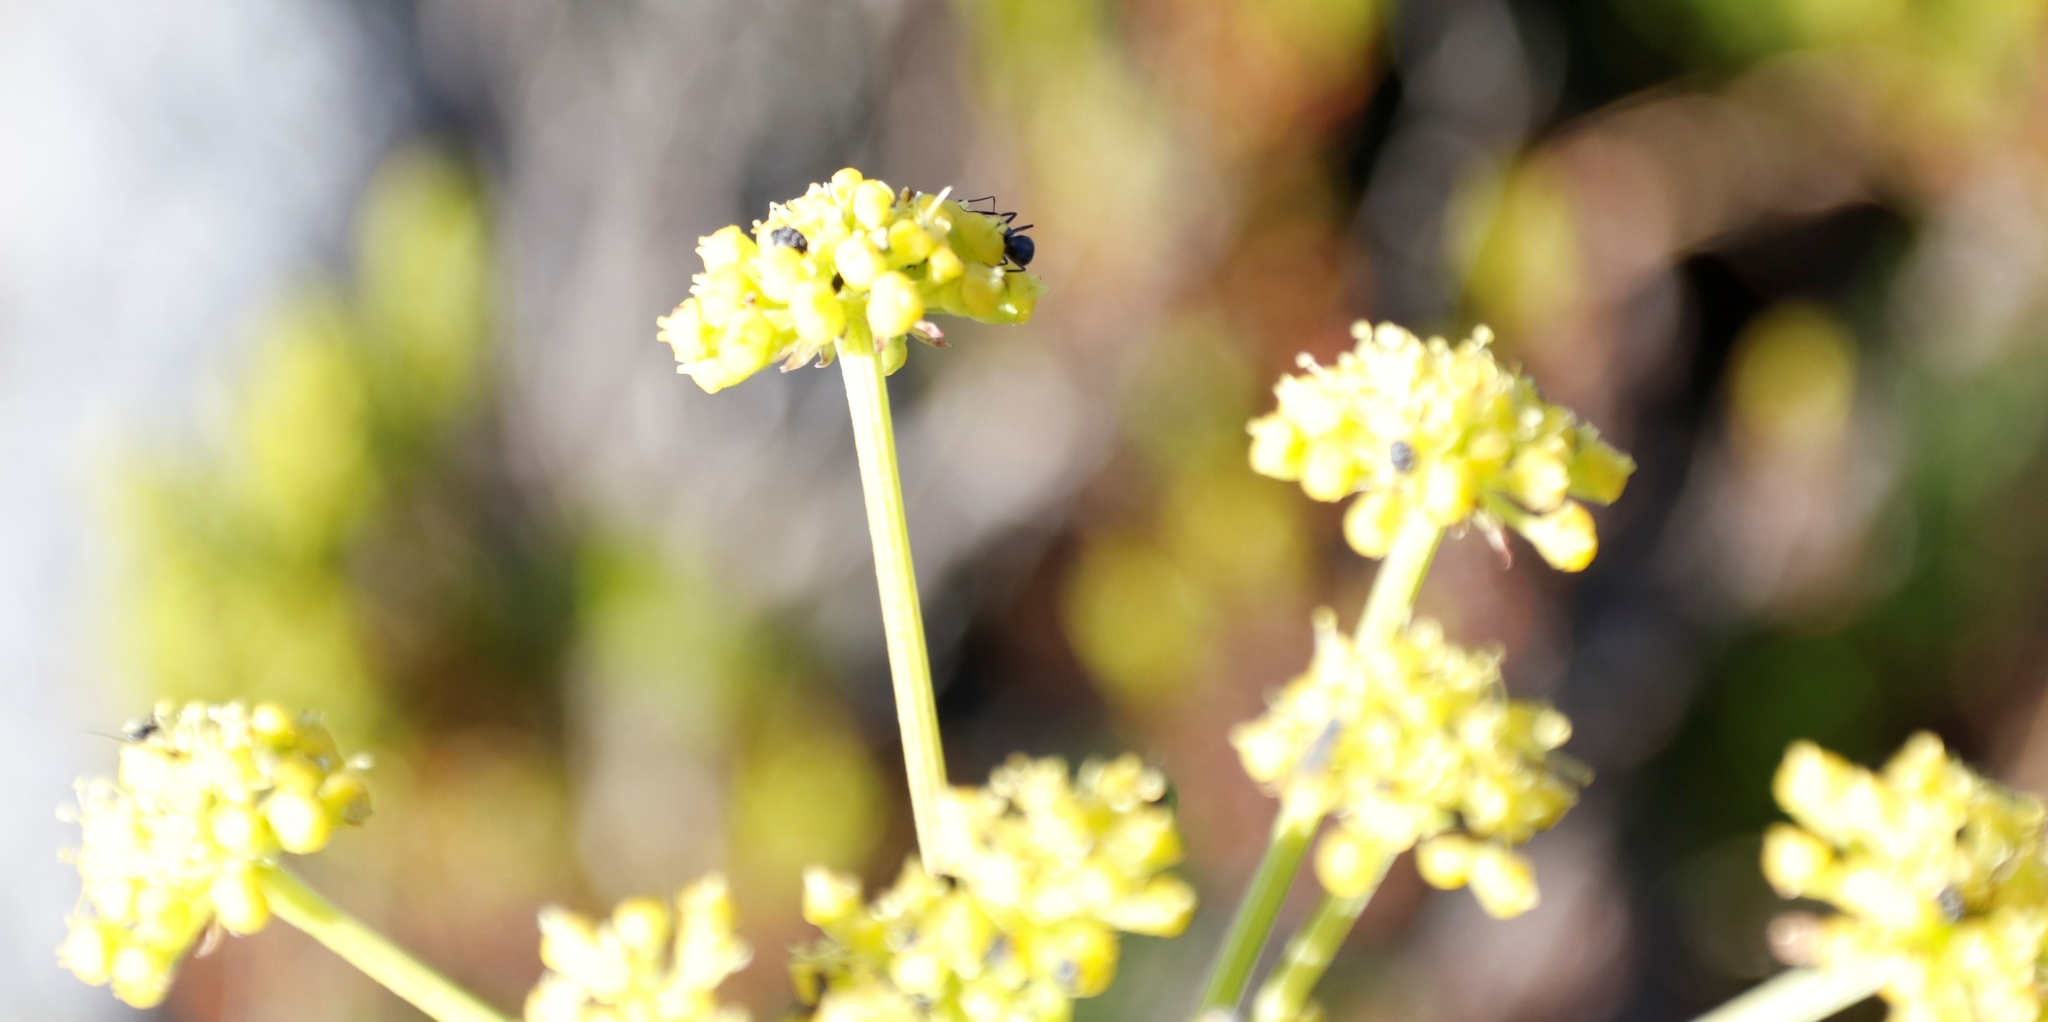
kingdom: Plantae
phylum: Tracheophyta
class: Magnoliopsida
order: Apiales
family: Apiaceae
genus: Nanobubon
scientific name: Nanobubon strictum
